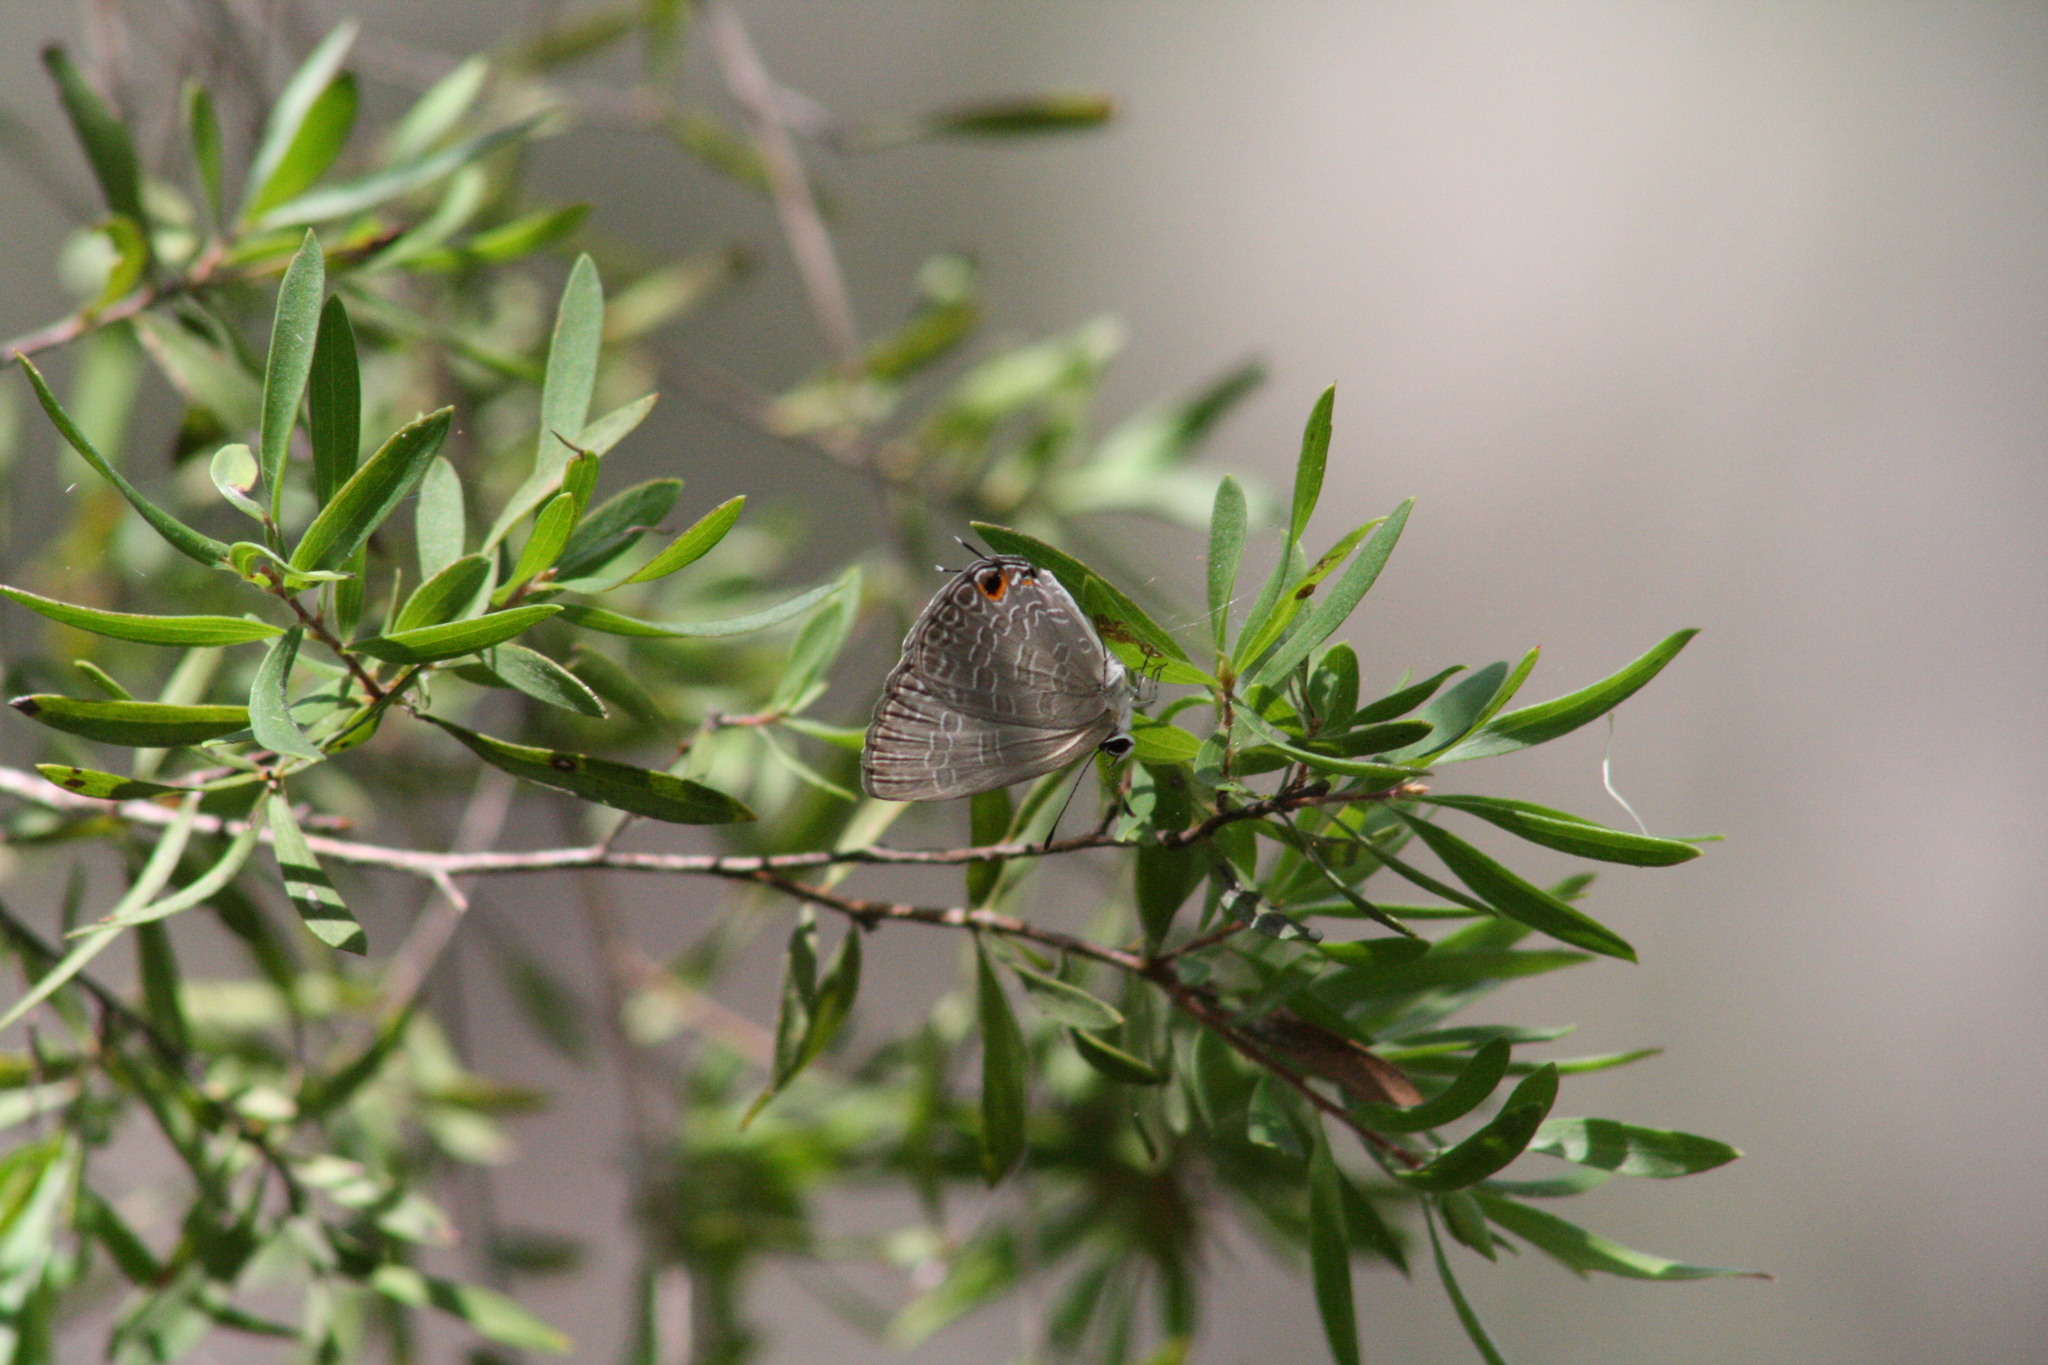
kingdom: Animalia
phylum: Arthropoda
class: Insecta
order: Lepidoptera
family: Lycaenidae
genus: Jamides
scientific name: Jamides phaseli
